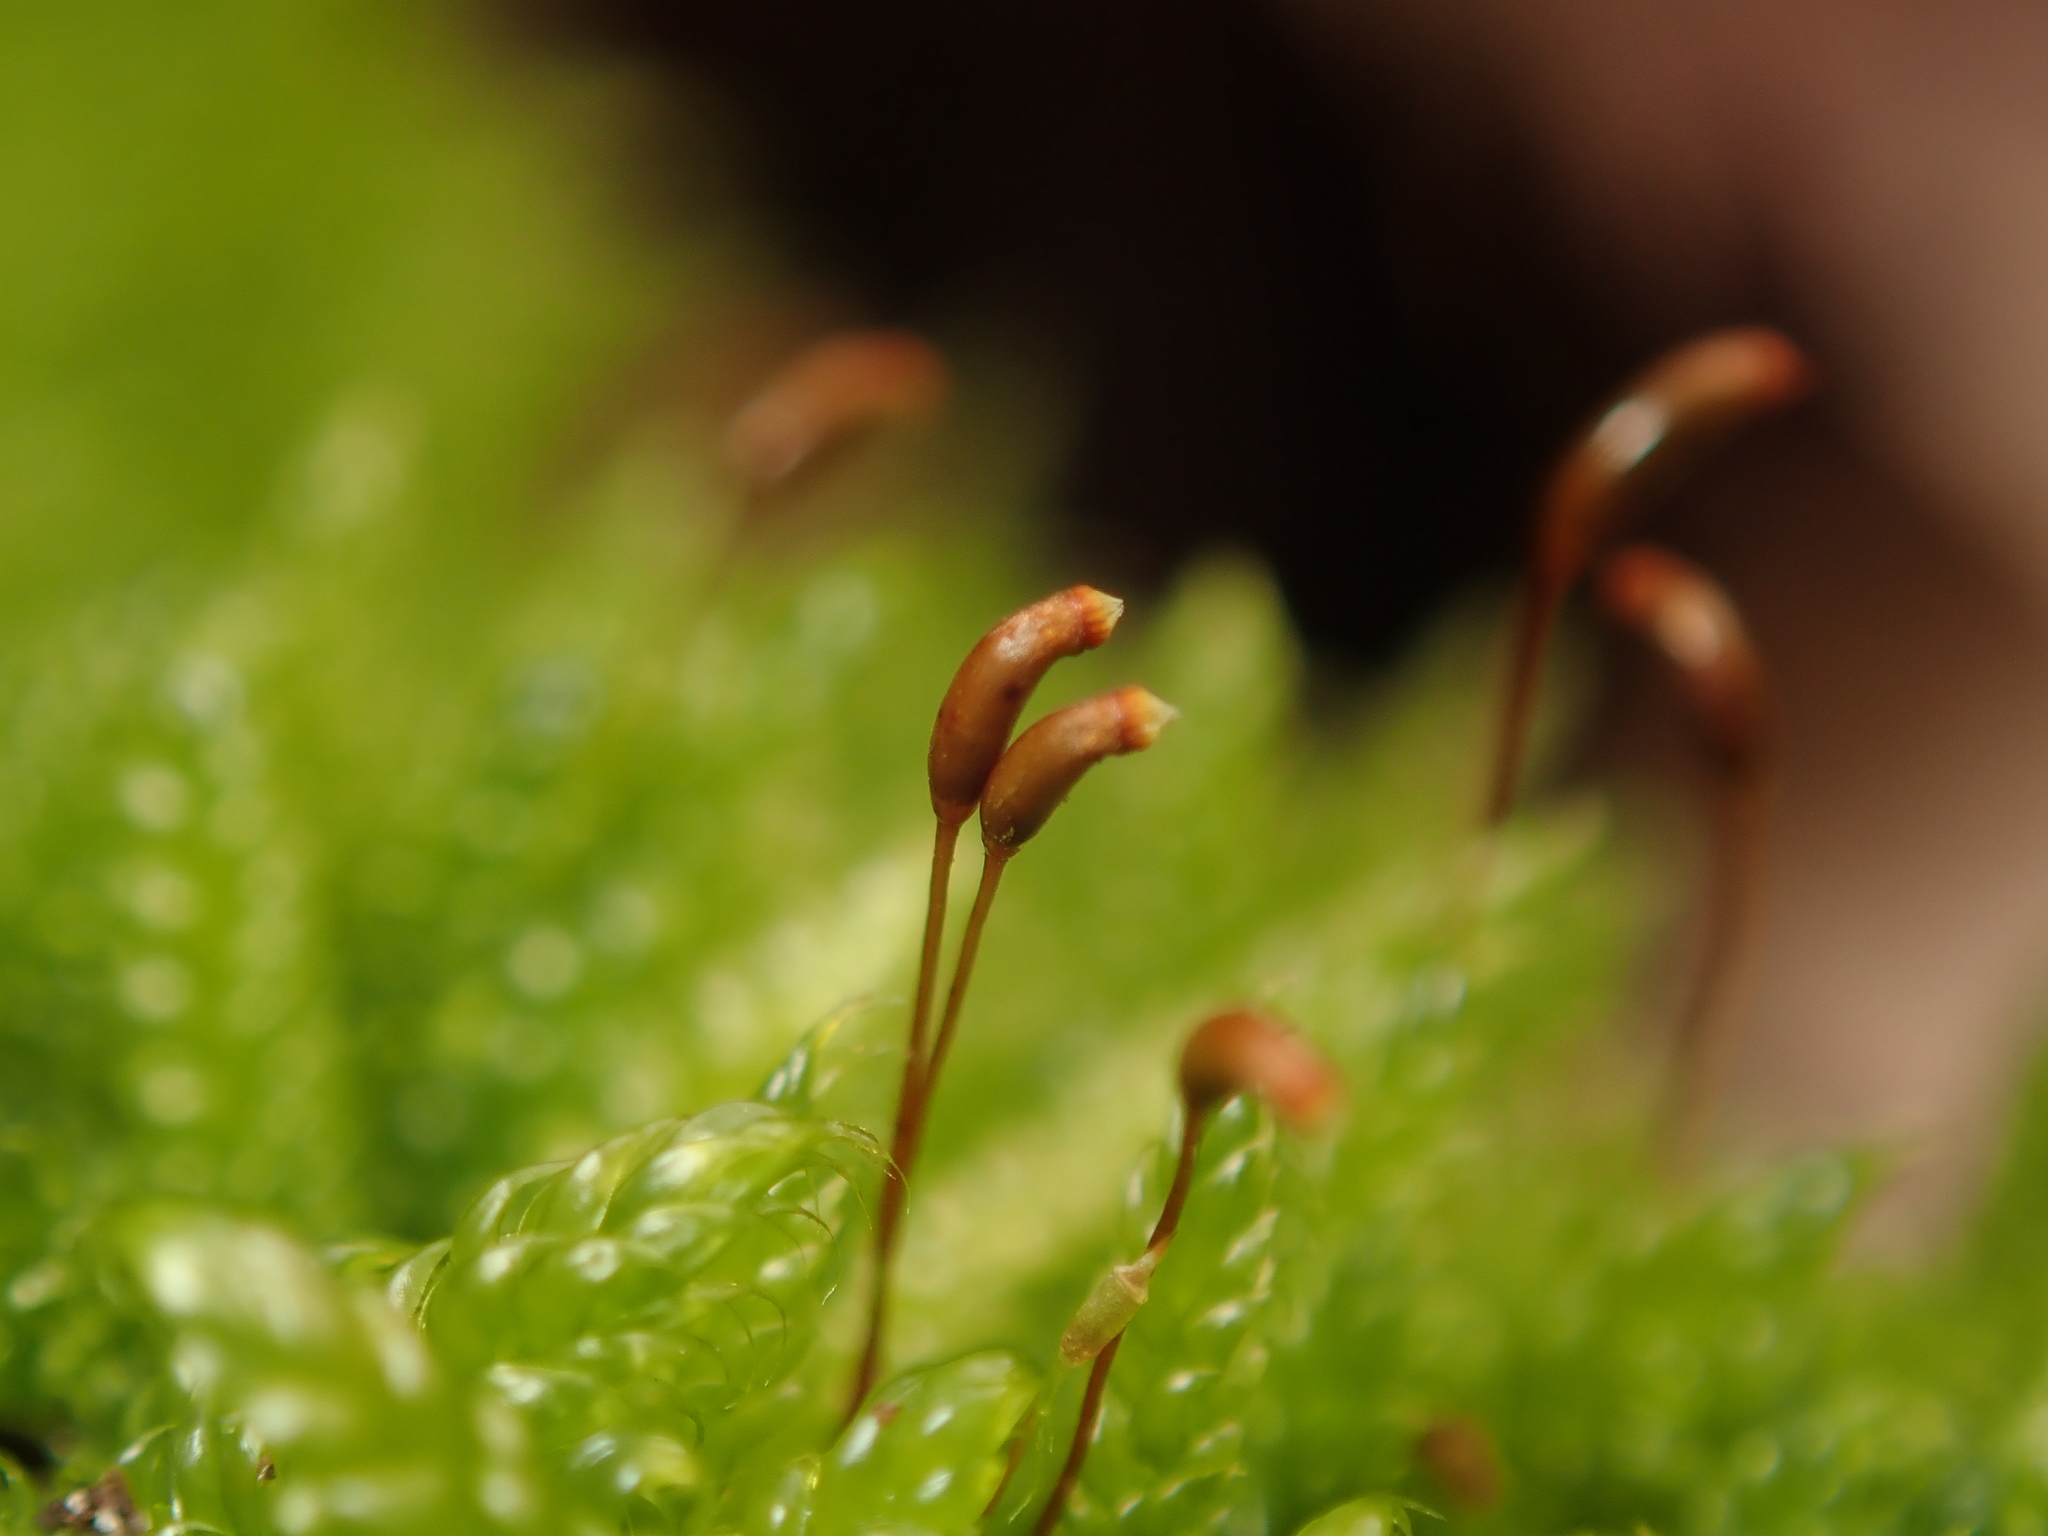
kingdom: Plantae
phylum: Bryophyta
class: Bryopsida
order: Hypnales
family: Hypnaceae
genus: Hypnum
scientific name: Hypnum cupressiforme
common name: Cypress-leaved plait-moss
